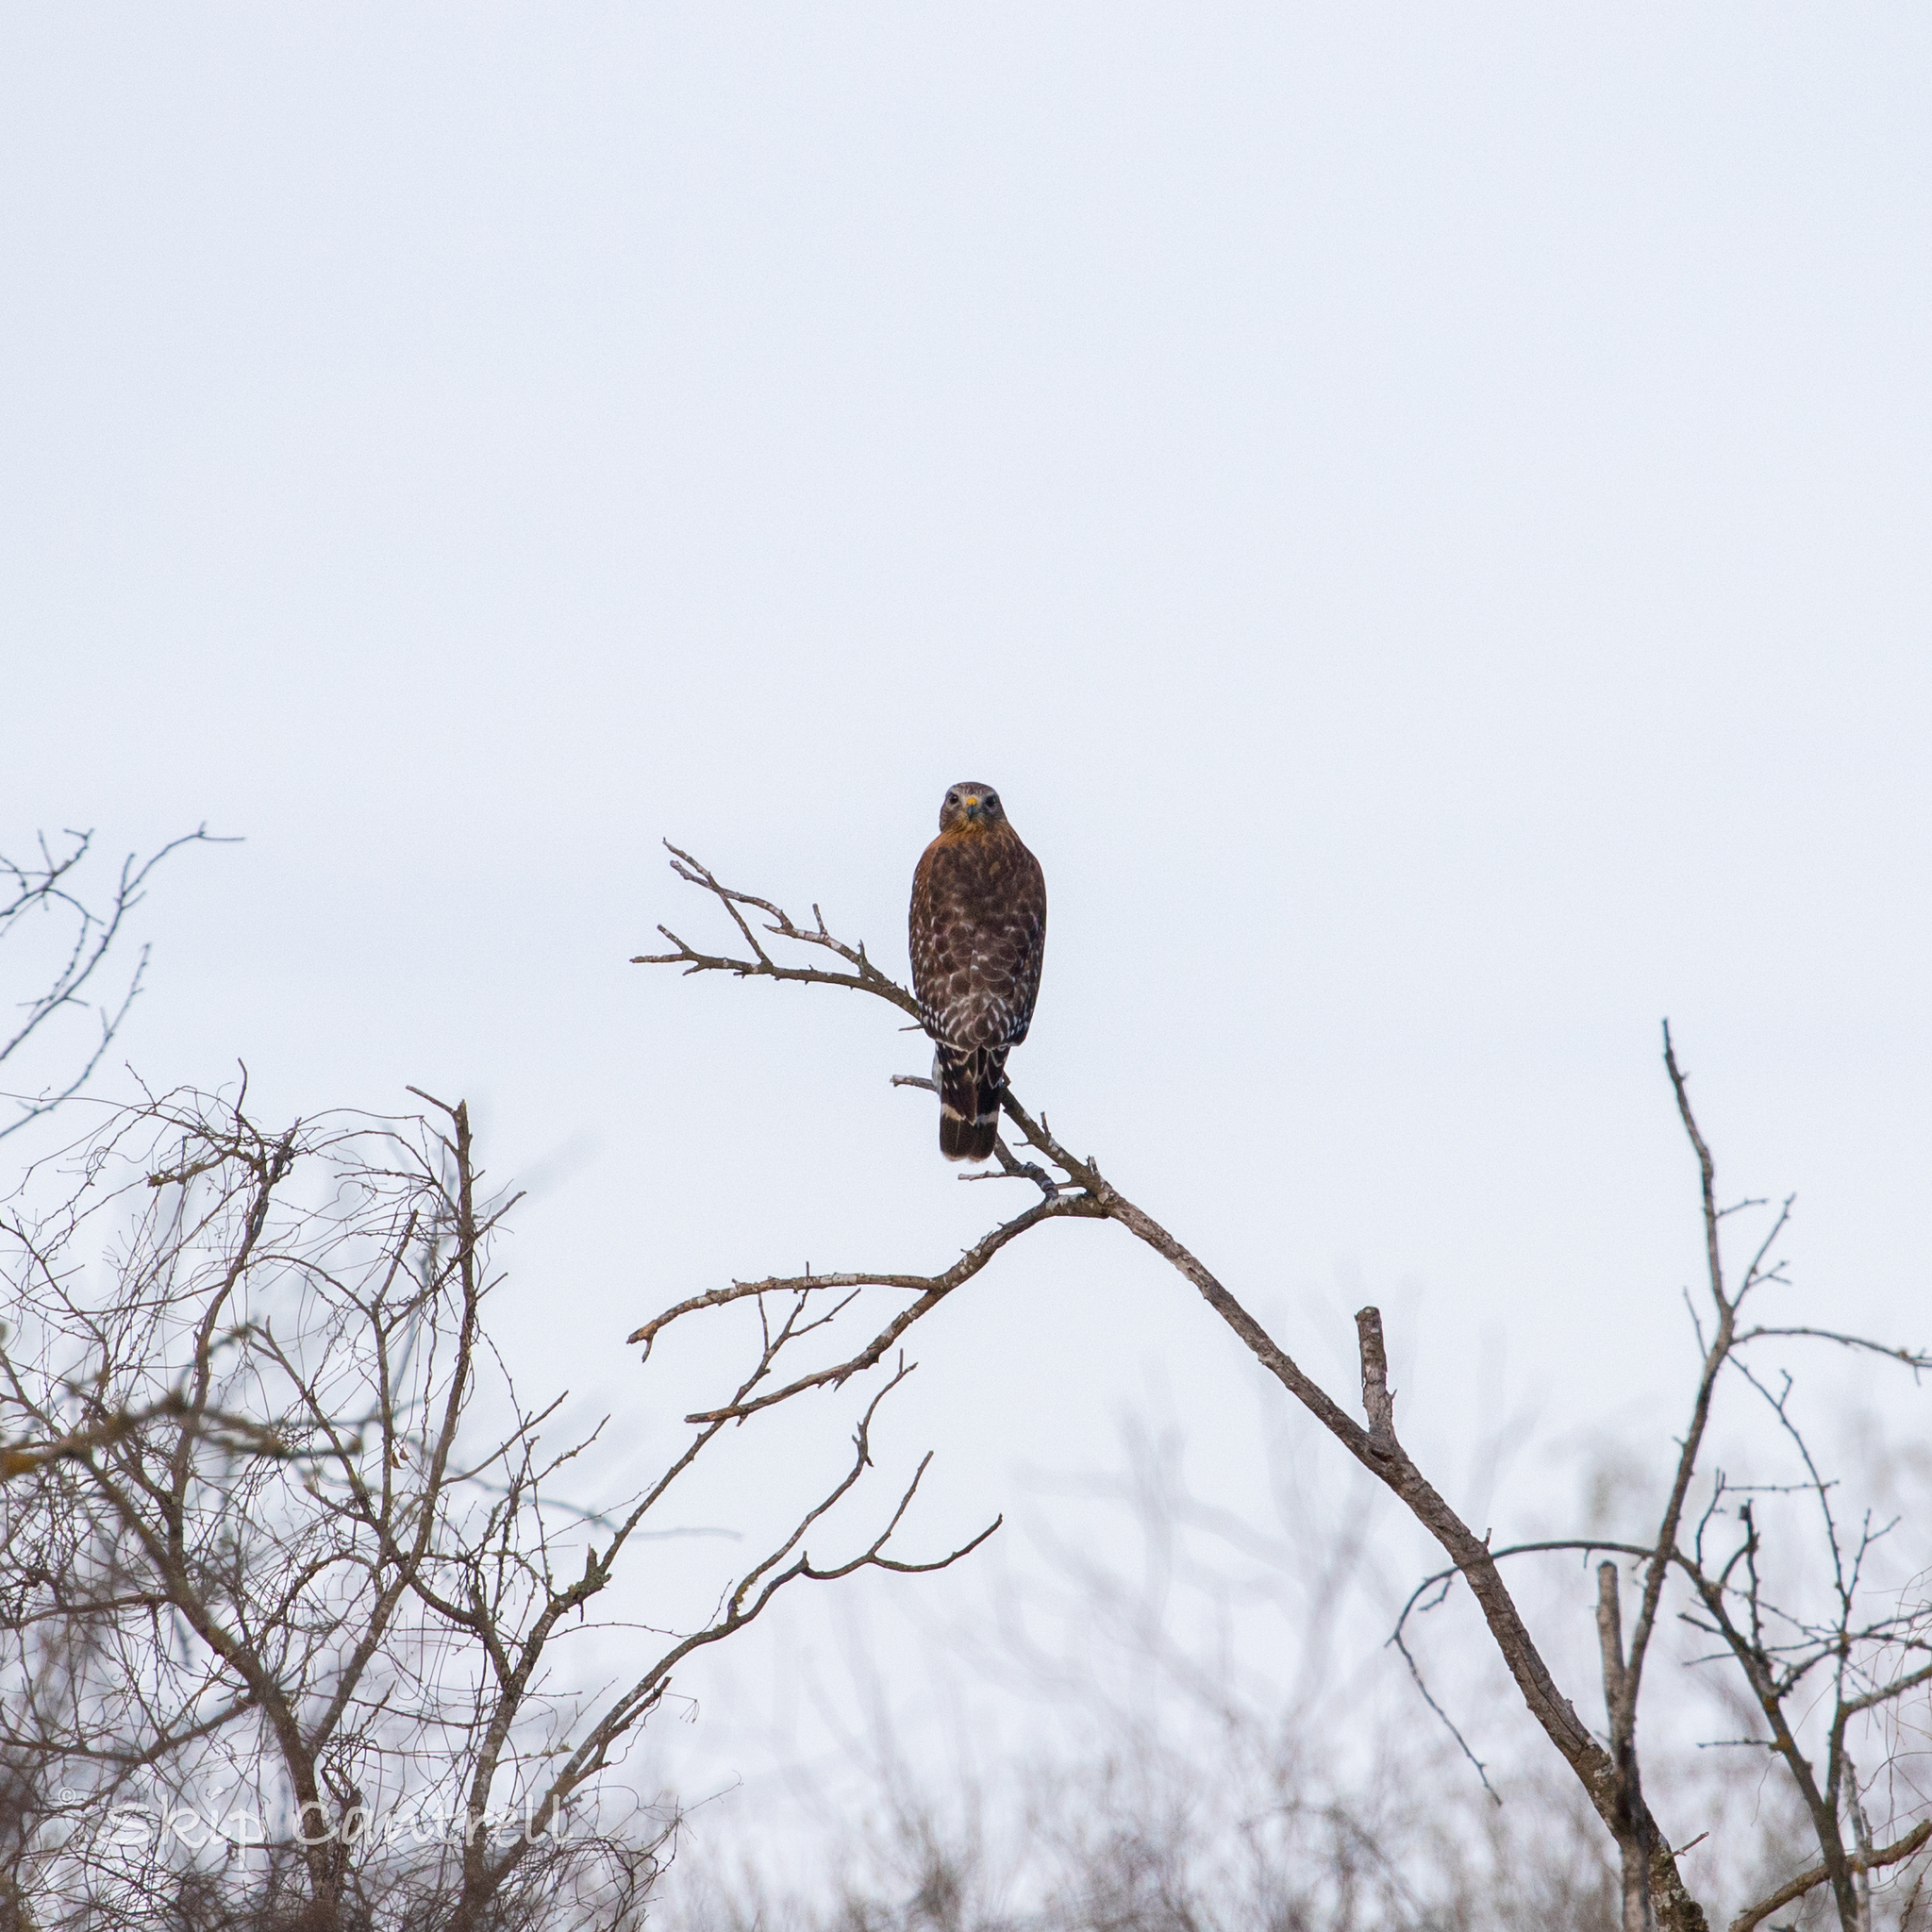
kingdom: Animalia
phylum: Chordata
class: Aves
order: Accipitriformes
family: Accipitridae
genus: Buteo
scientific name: Buteo lineatus
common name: Red-shouldered hawk
